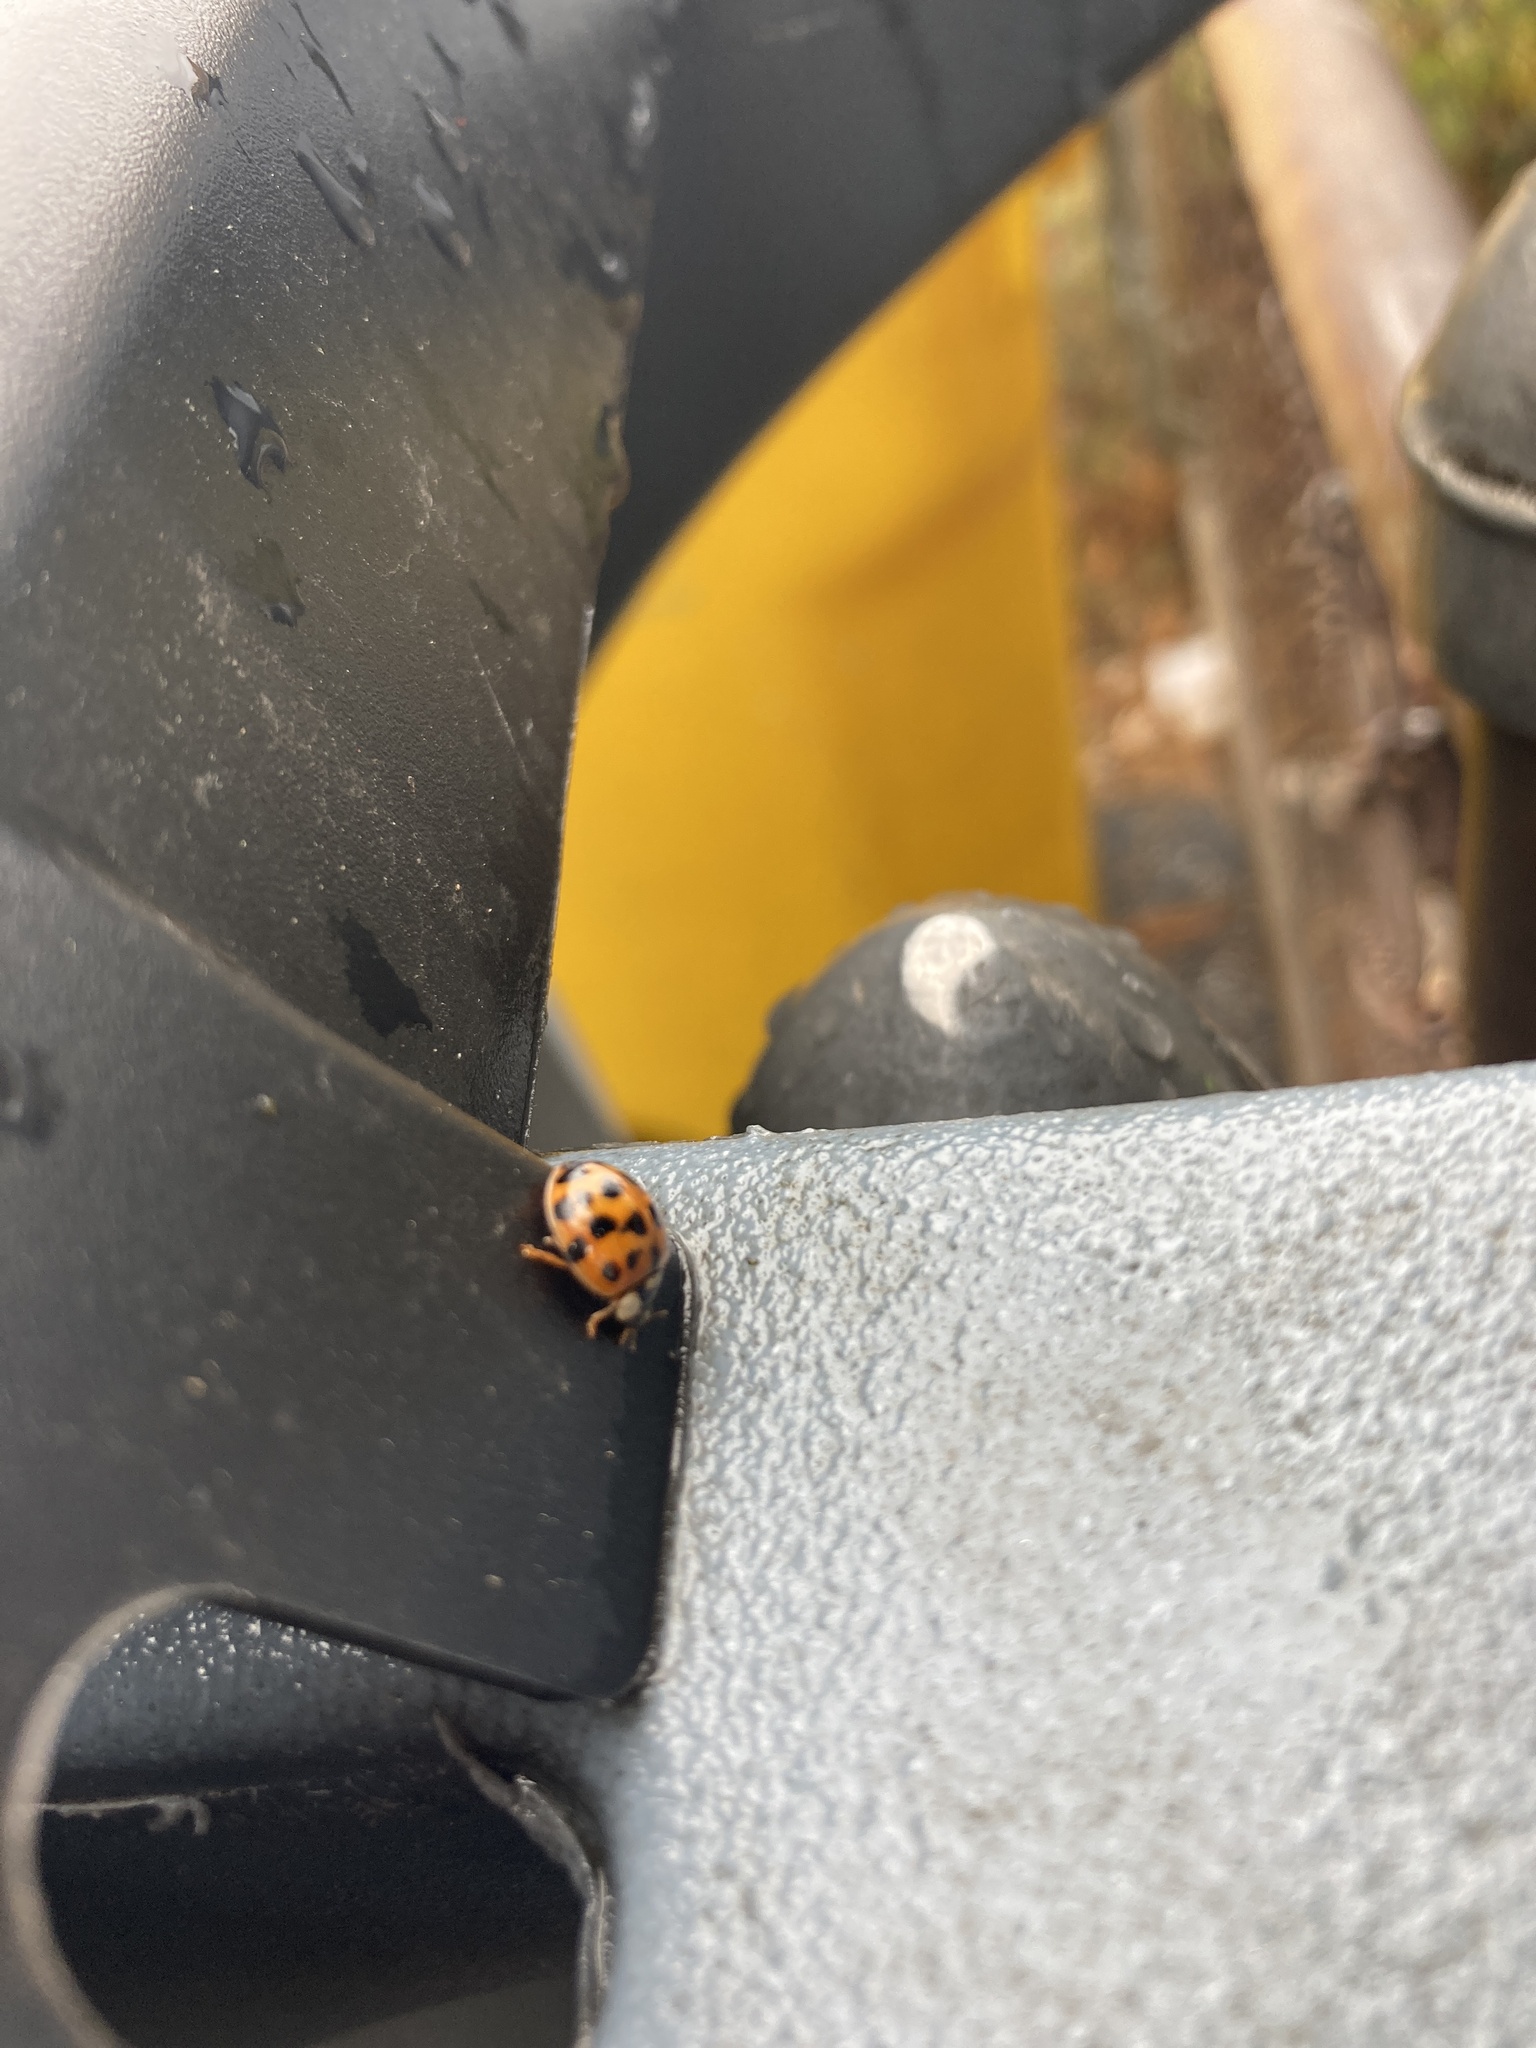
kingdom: Animalia
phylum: Arthropoda
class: Insecta
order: Coleoptera
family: Coccinellidae
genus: Harmonia
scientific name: Harmonia axyridis
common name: Harlequin ladybird
